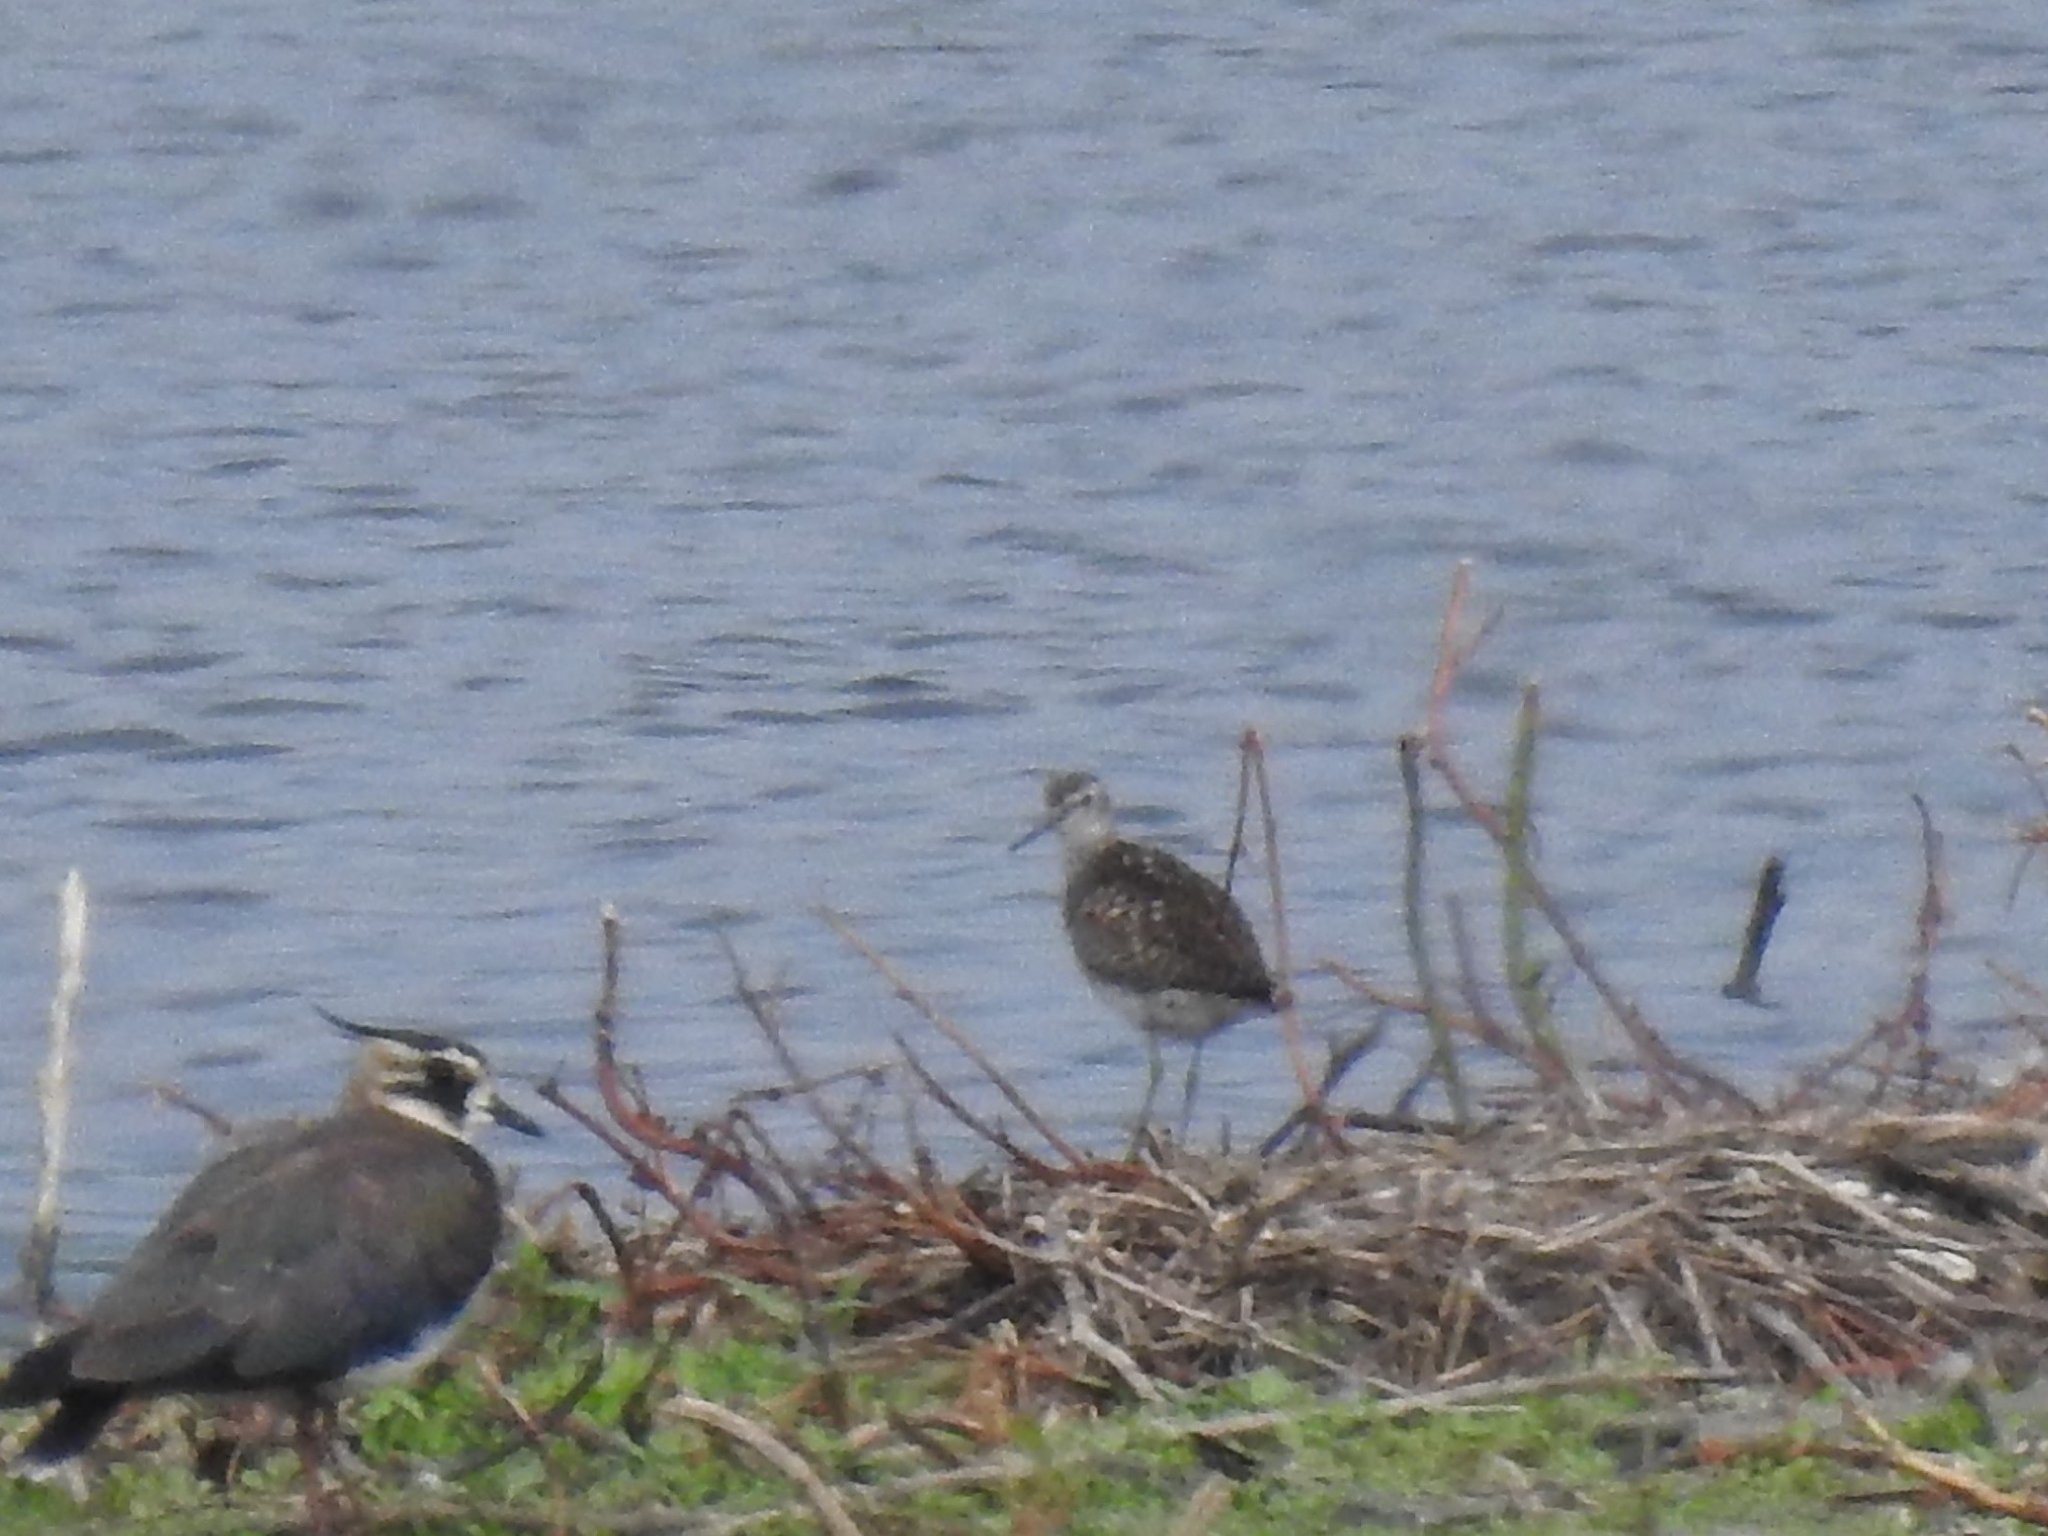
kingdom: Animalia
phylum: Chordata
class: Aves
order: Charadriiformes
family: Scolopacidae
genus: Tringa
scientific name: Tringa glareola
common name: Wood sandpiper
